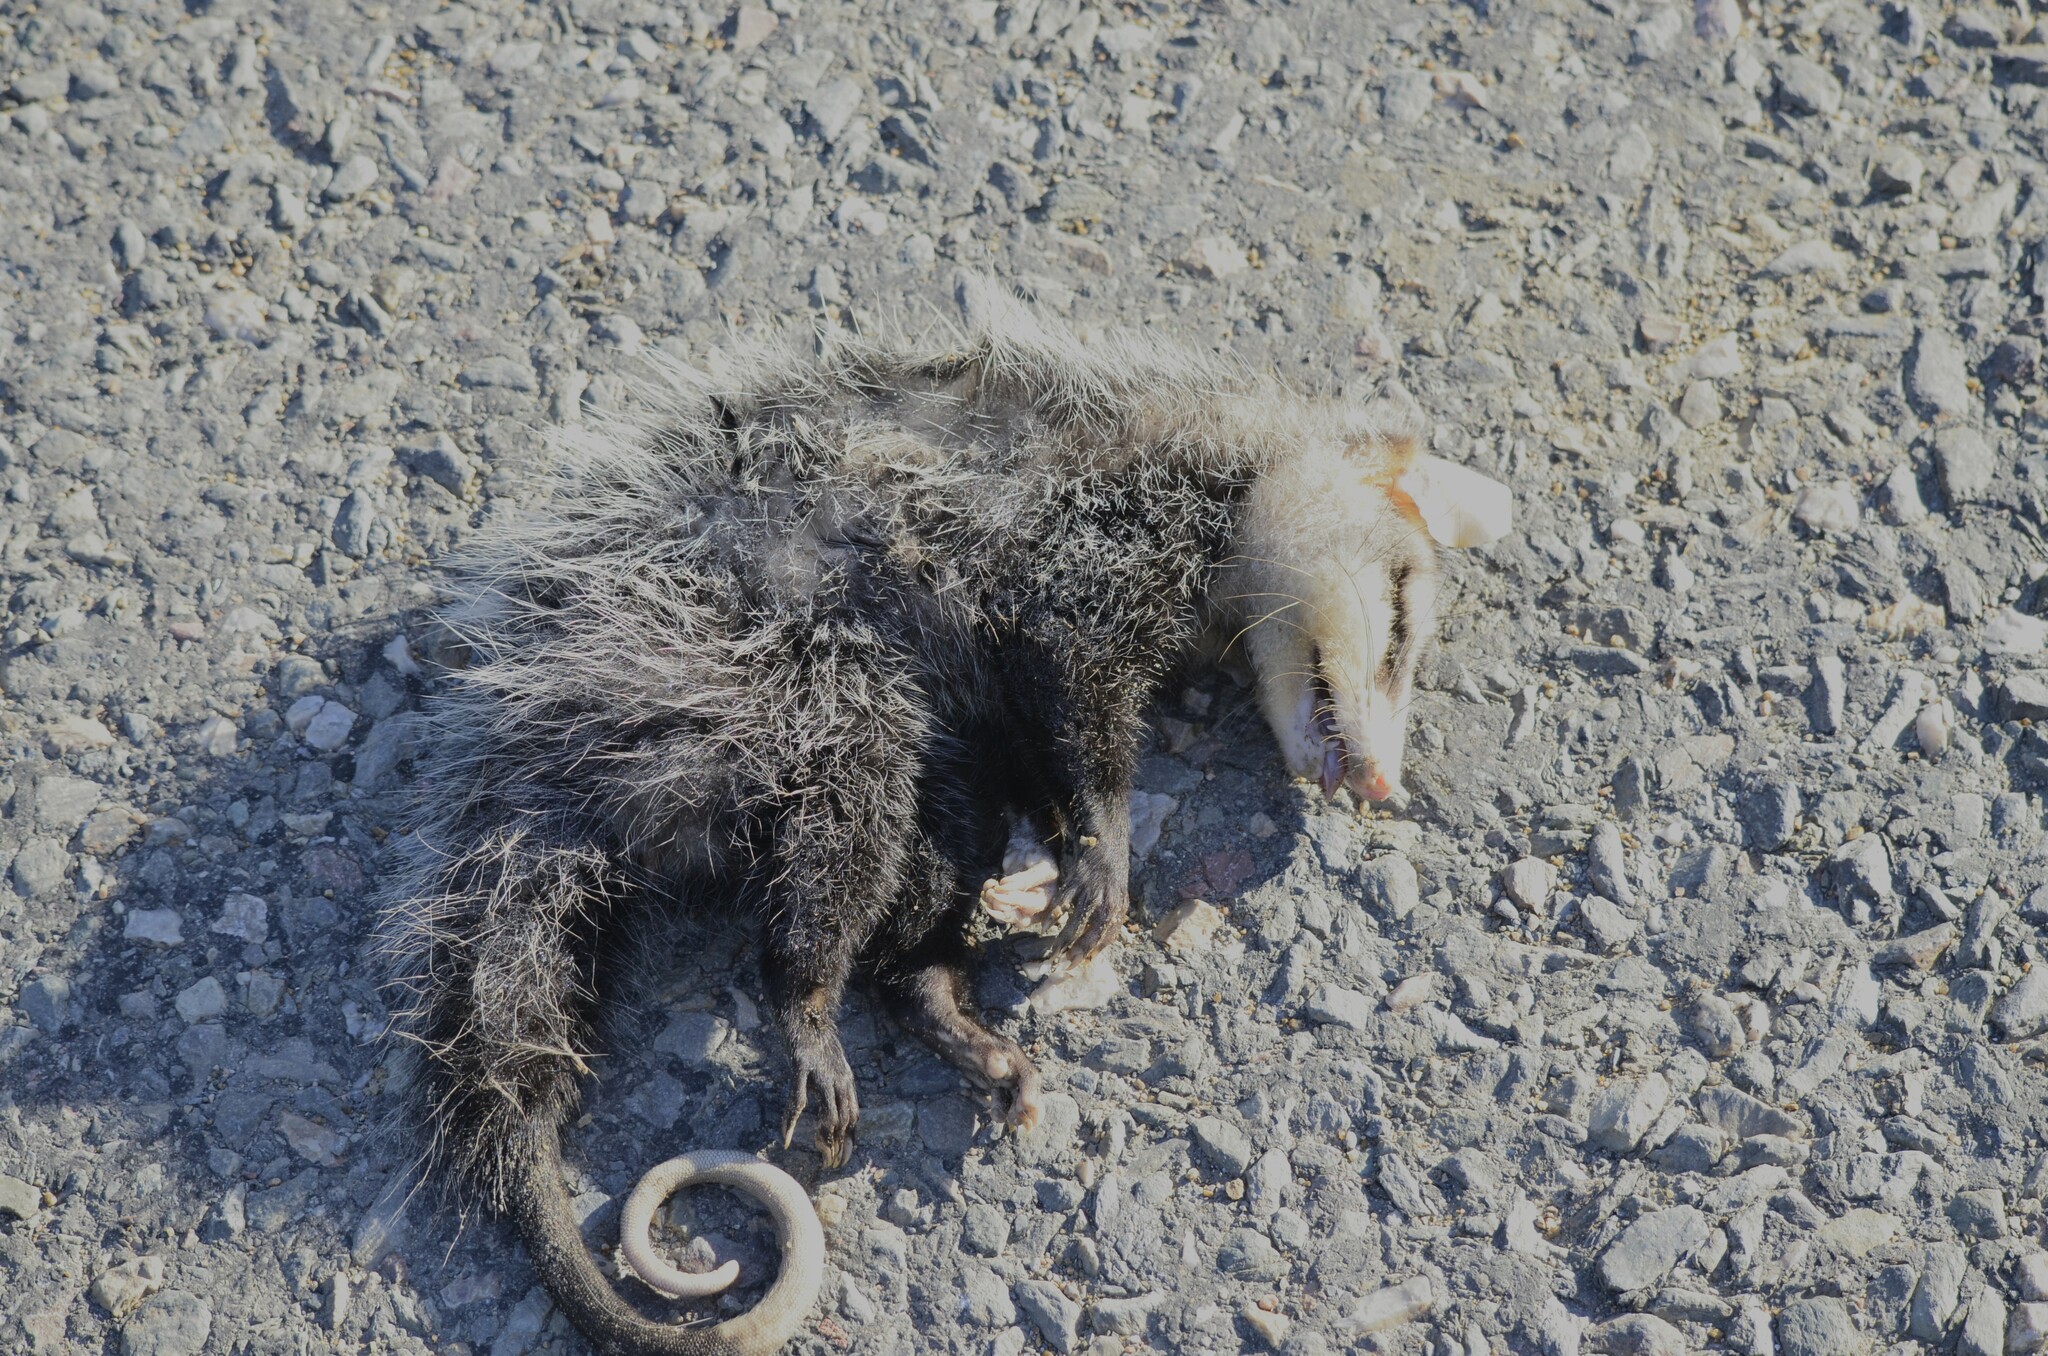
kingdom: Animalia
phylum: Chordata
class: Mammalia
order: Didelphimorphia
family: Didelphidae
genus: Didelphis
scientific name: Didelphis albiventris
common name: White-eared opossum
